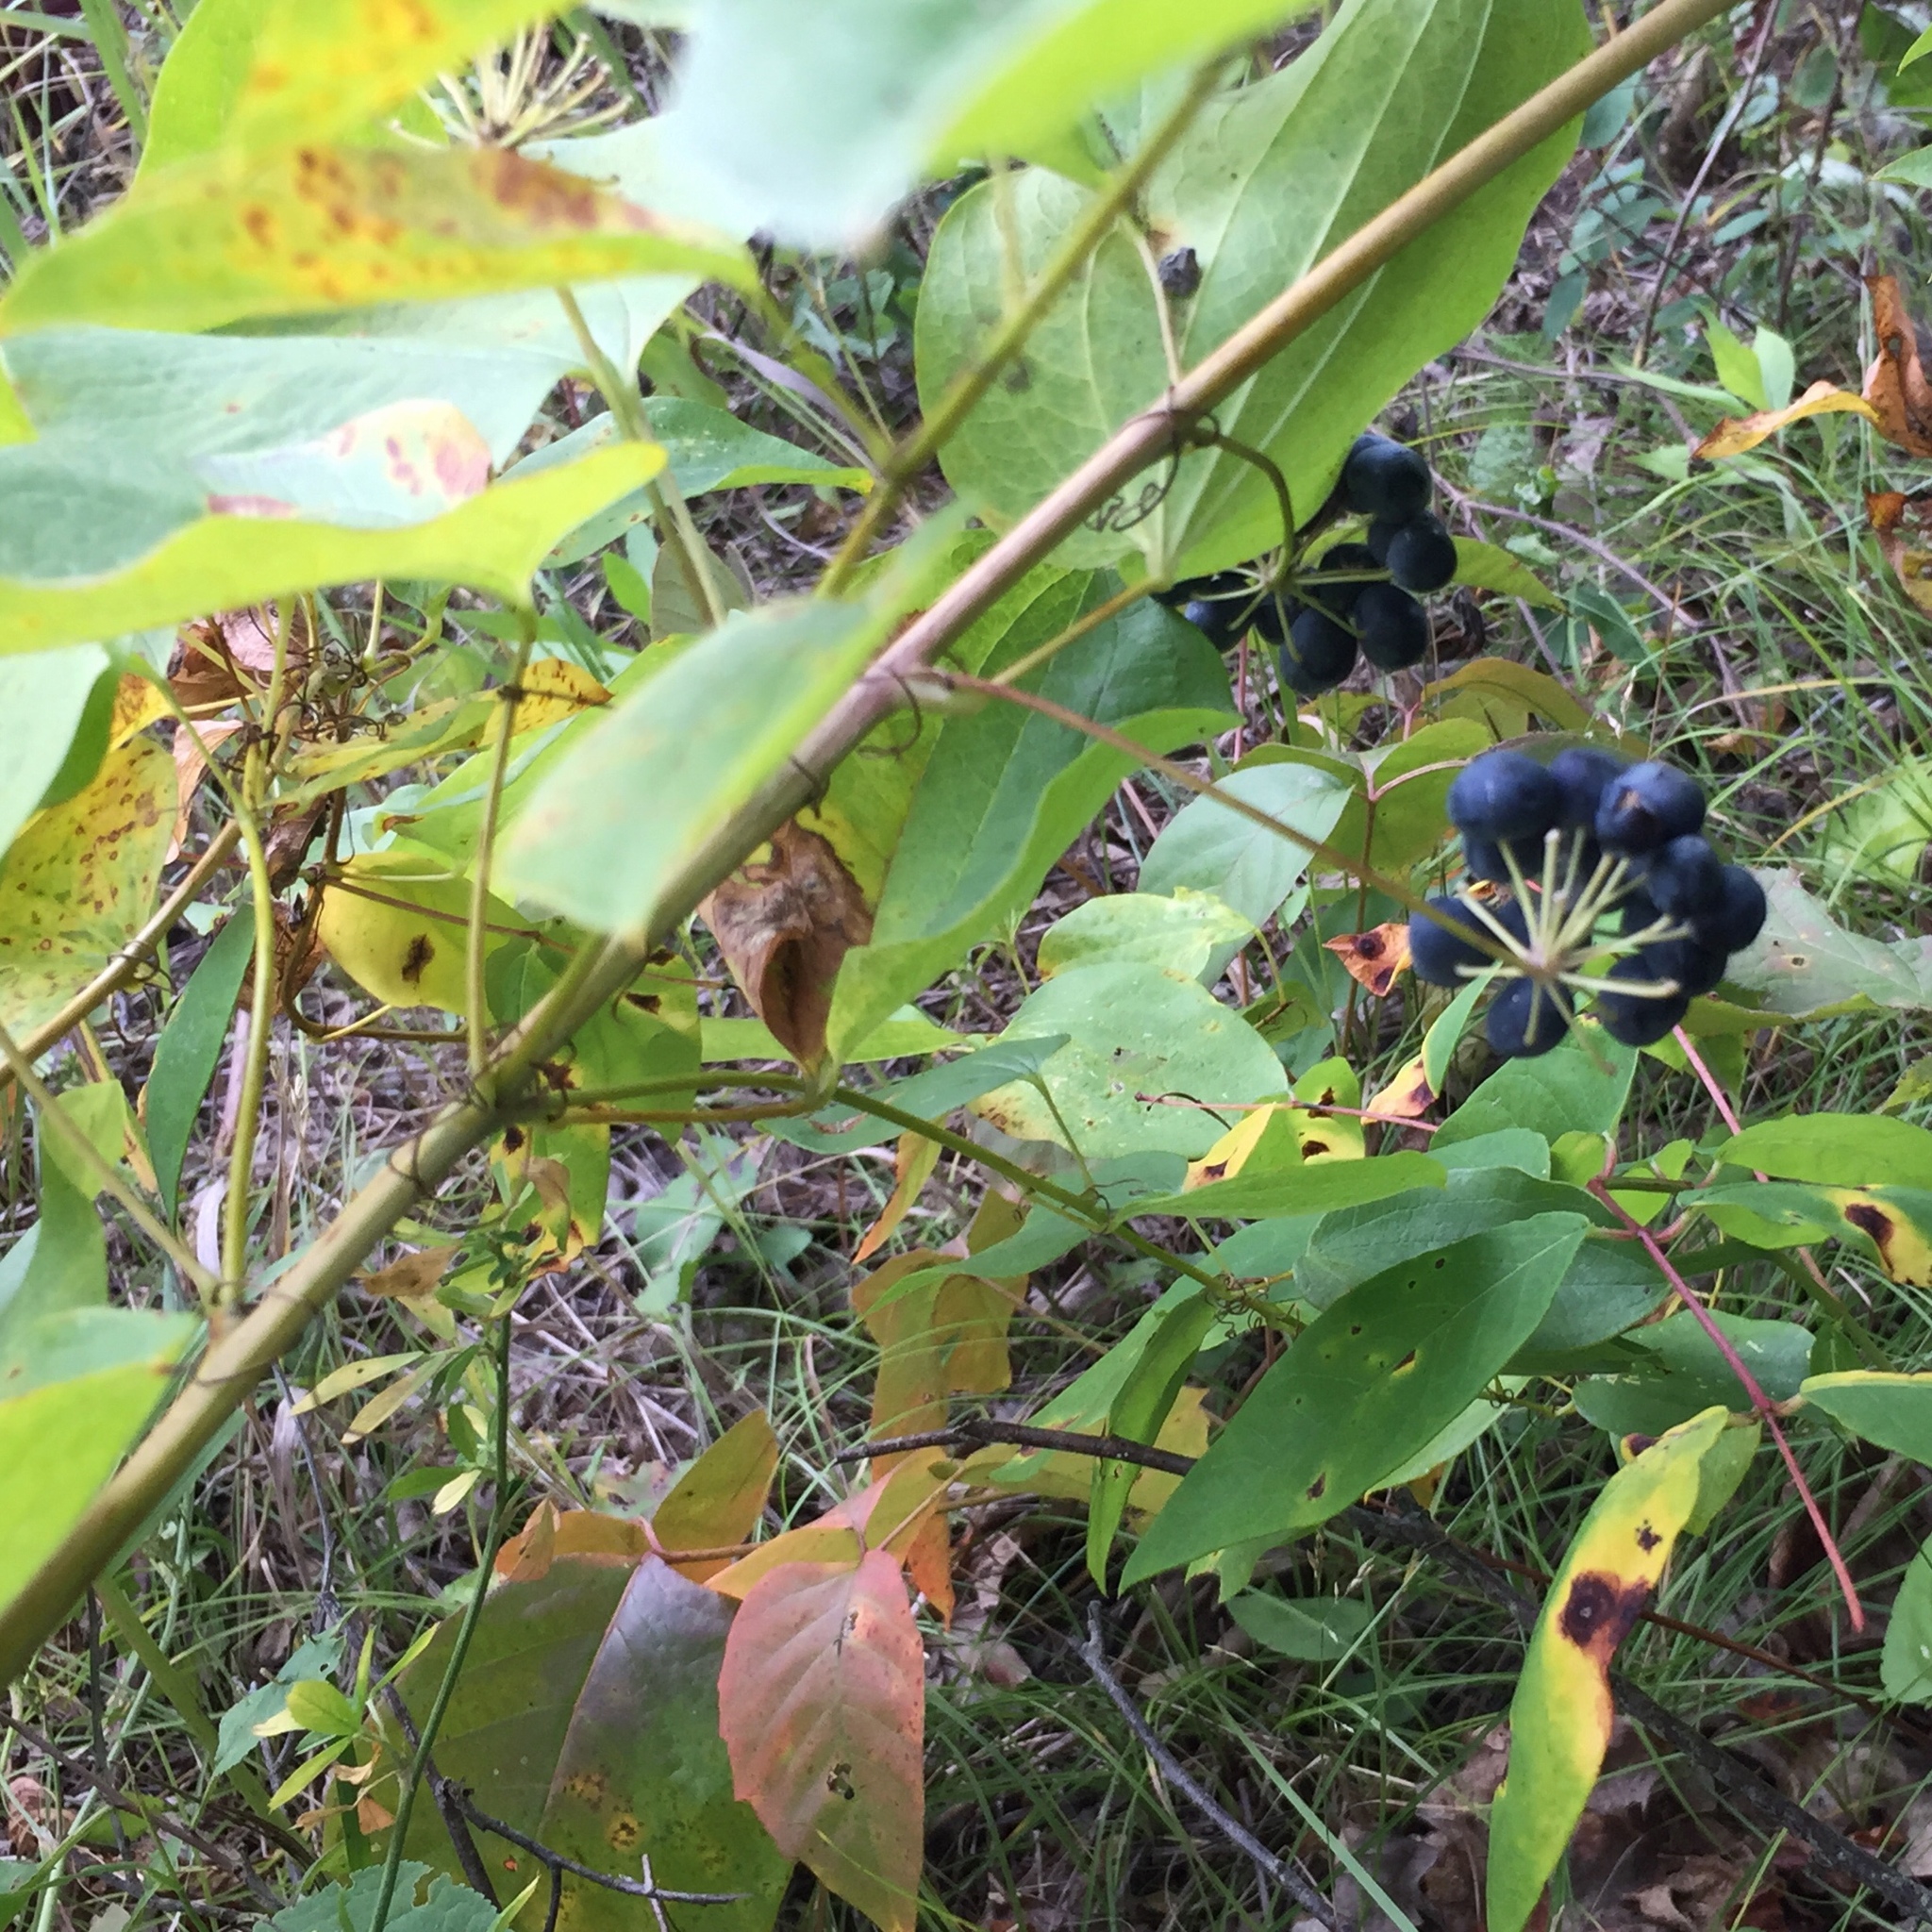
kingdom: Plantae
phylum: Tracheophyta
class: Liliopsida
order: Liliales
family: Smilacaceae
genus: Smilax
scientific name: Smilax lasioneura
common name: Blue ridge carrionflower
